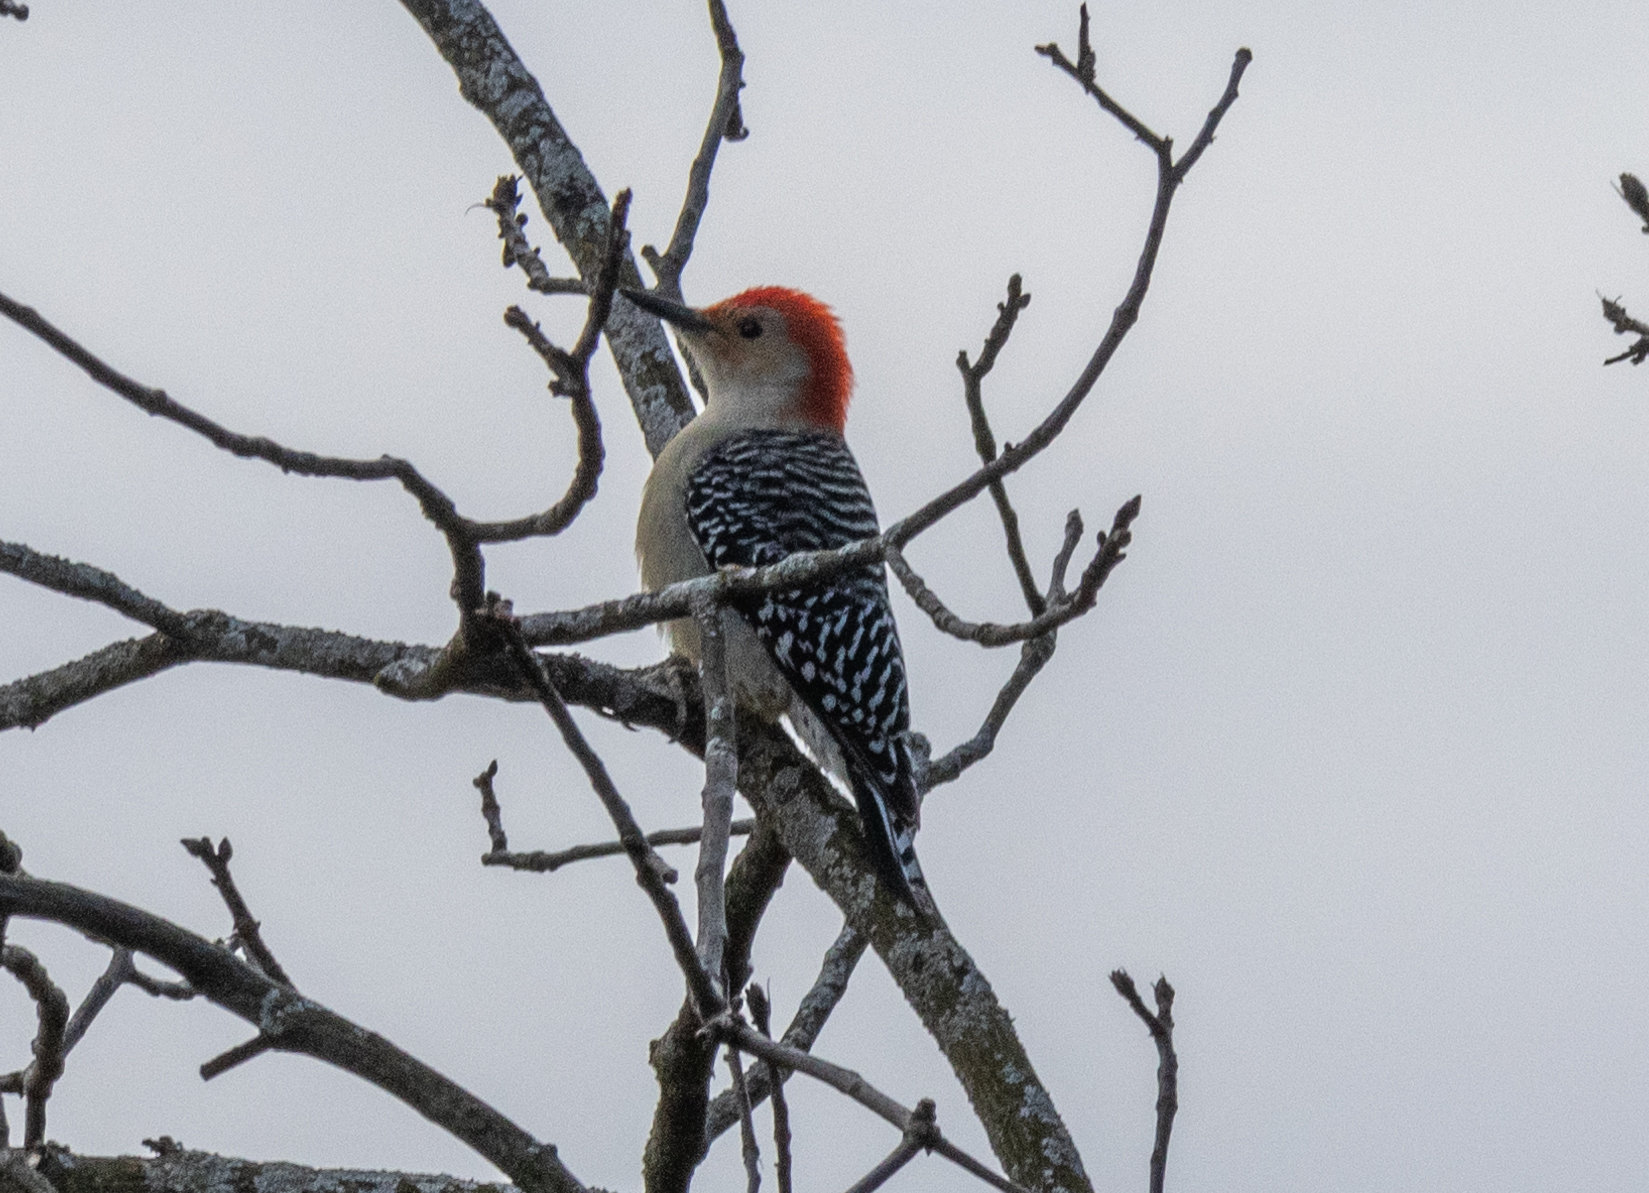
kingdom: Animalia
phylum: Chordata
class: Aves
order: Piciformes
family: Picidae
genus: Melanerpes
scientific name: Melanerpes carolinus
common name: Red-bellied woodpecker
